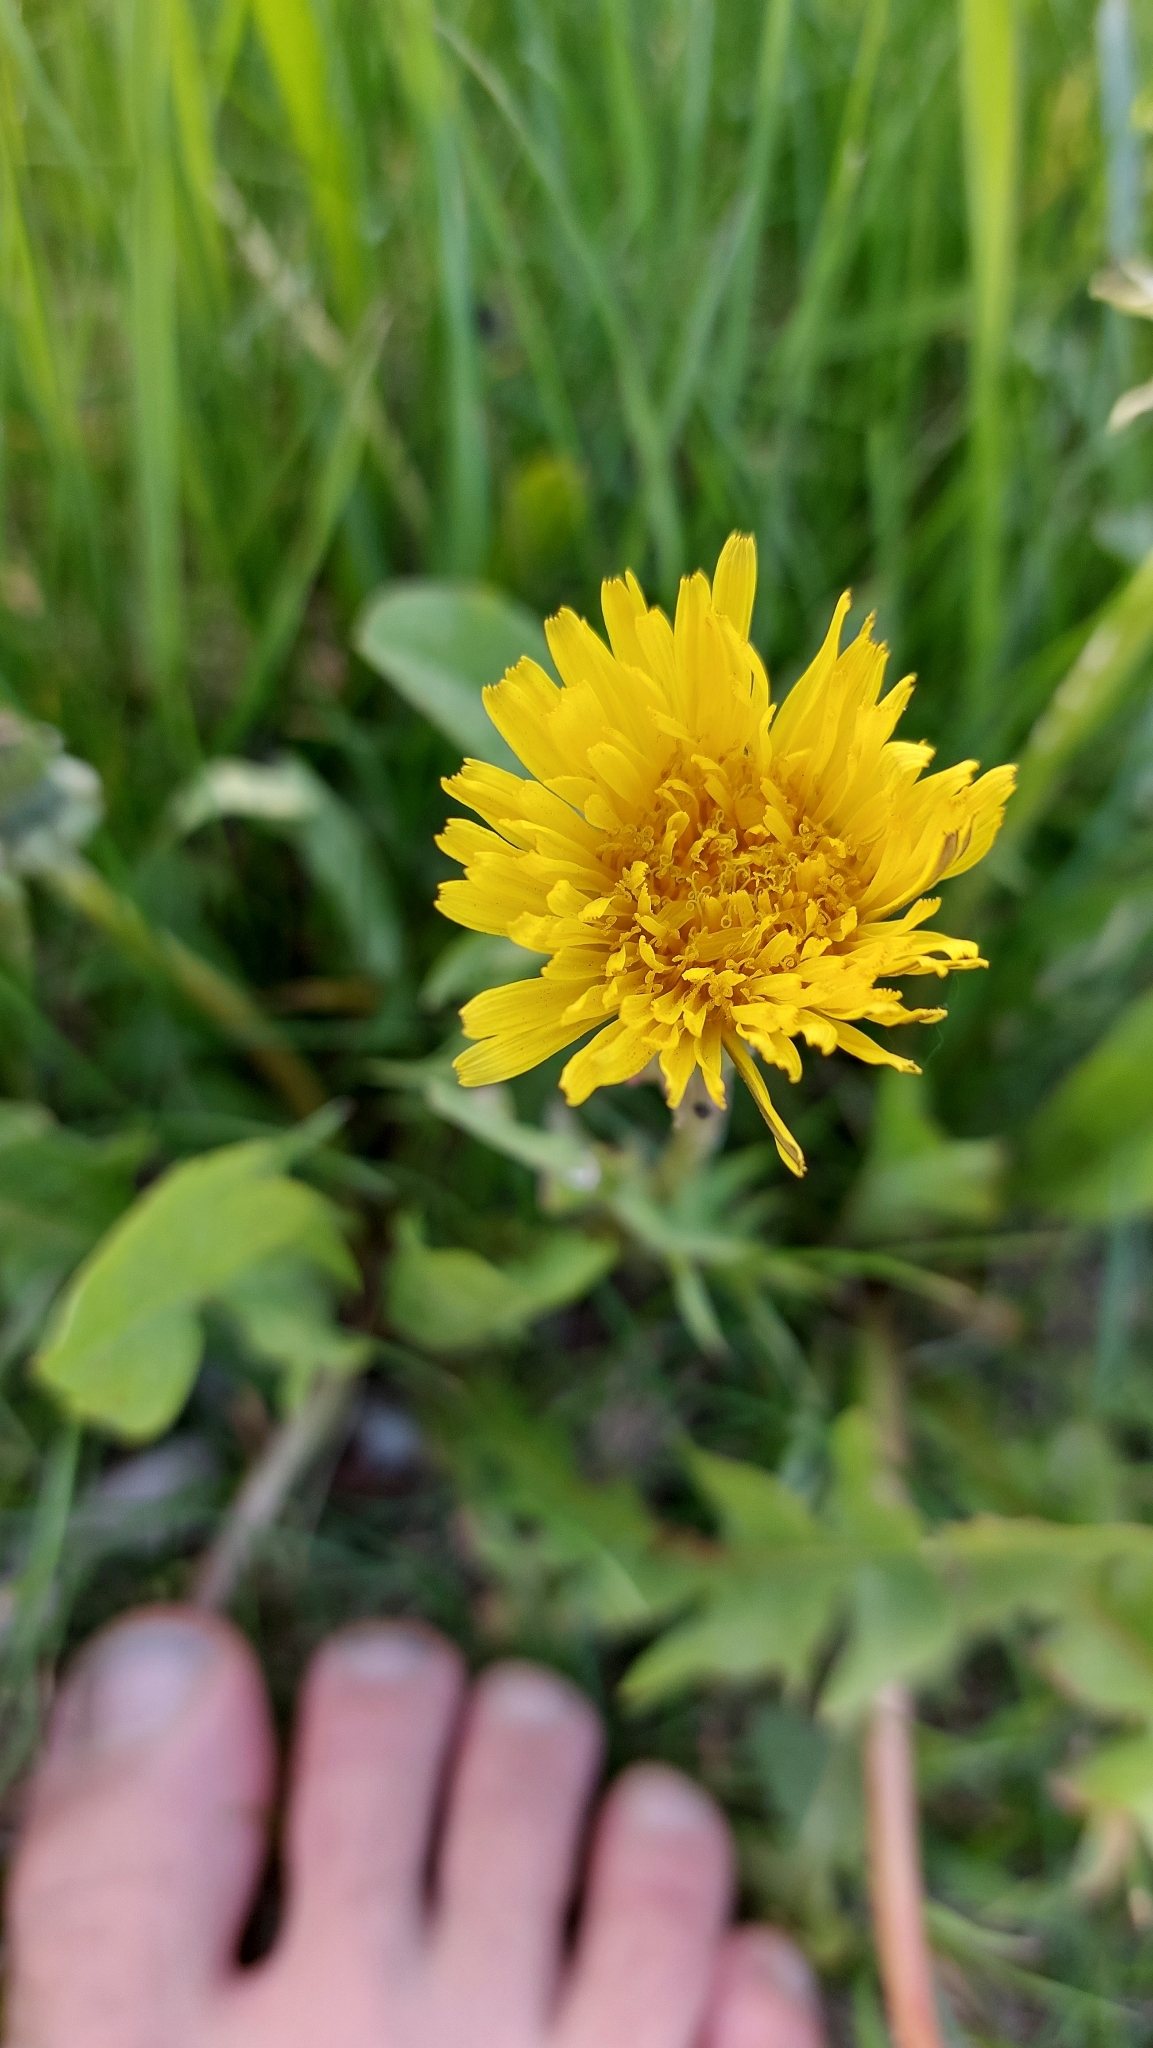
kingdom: Plantae
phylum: Tracheophyta
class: Magnoliopsida
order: Asterales
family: Asteraceae
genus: Taraxacum
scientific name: Taraxacum
